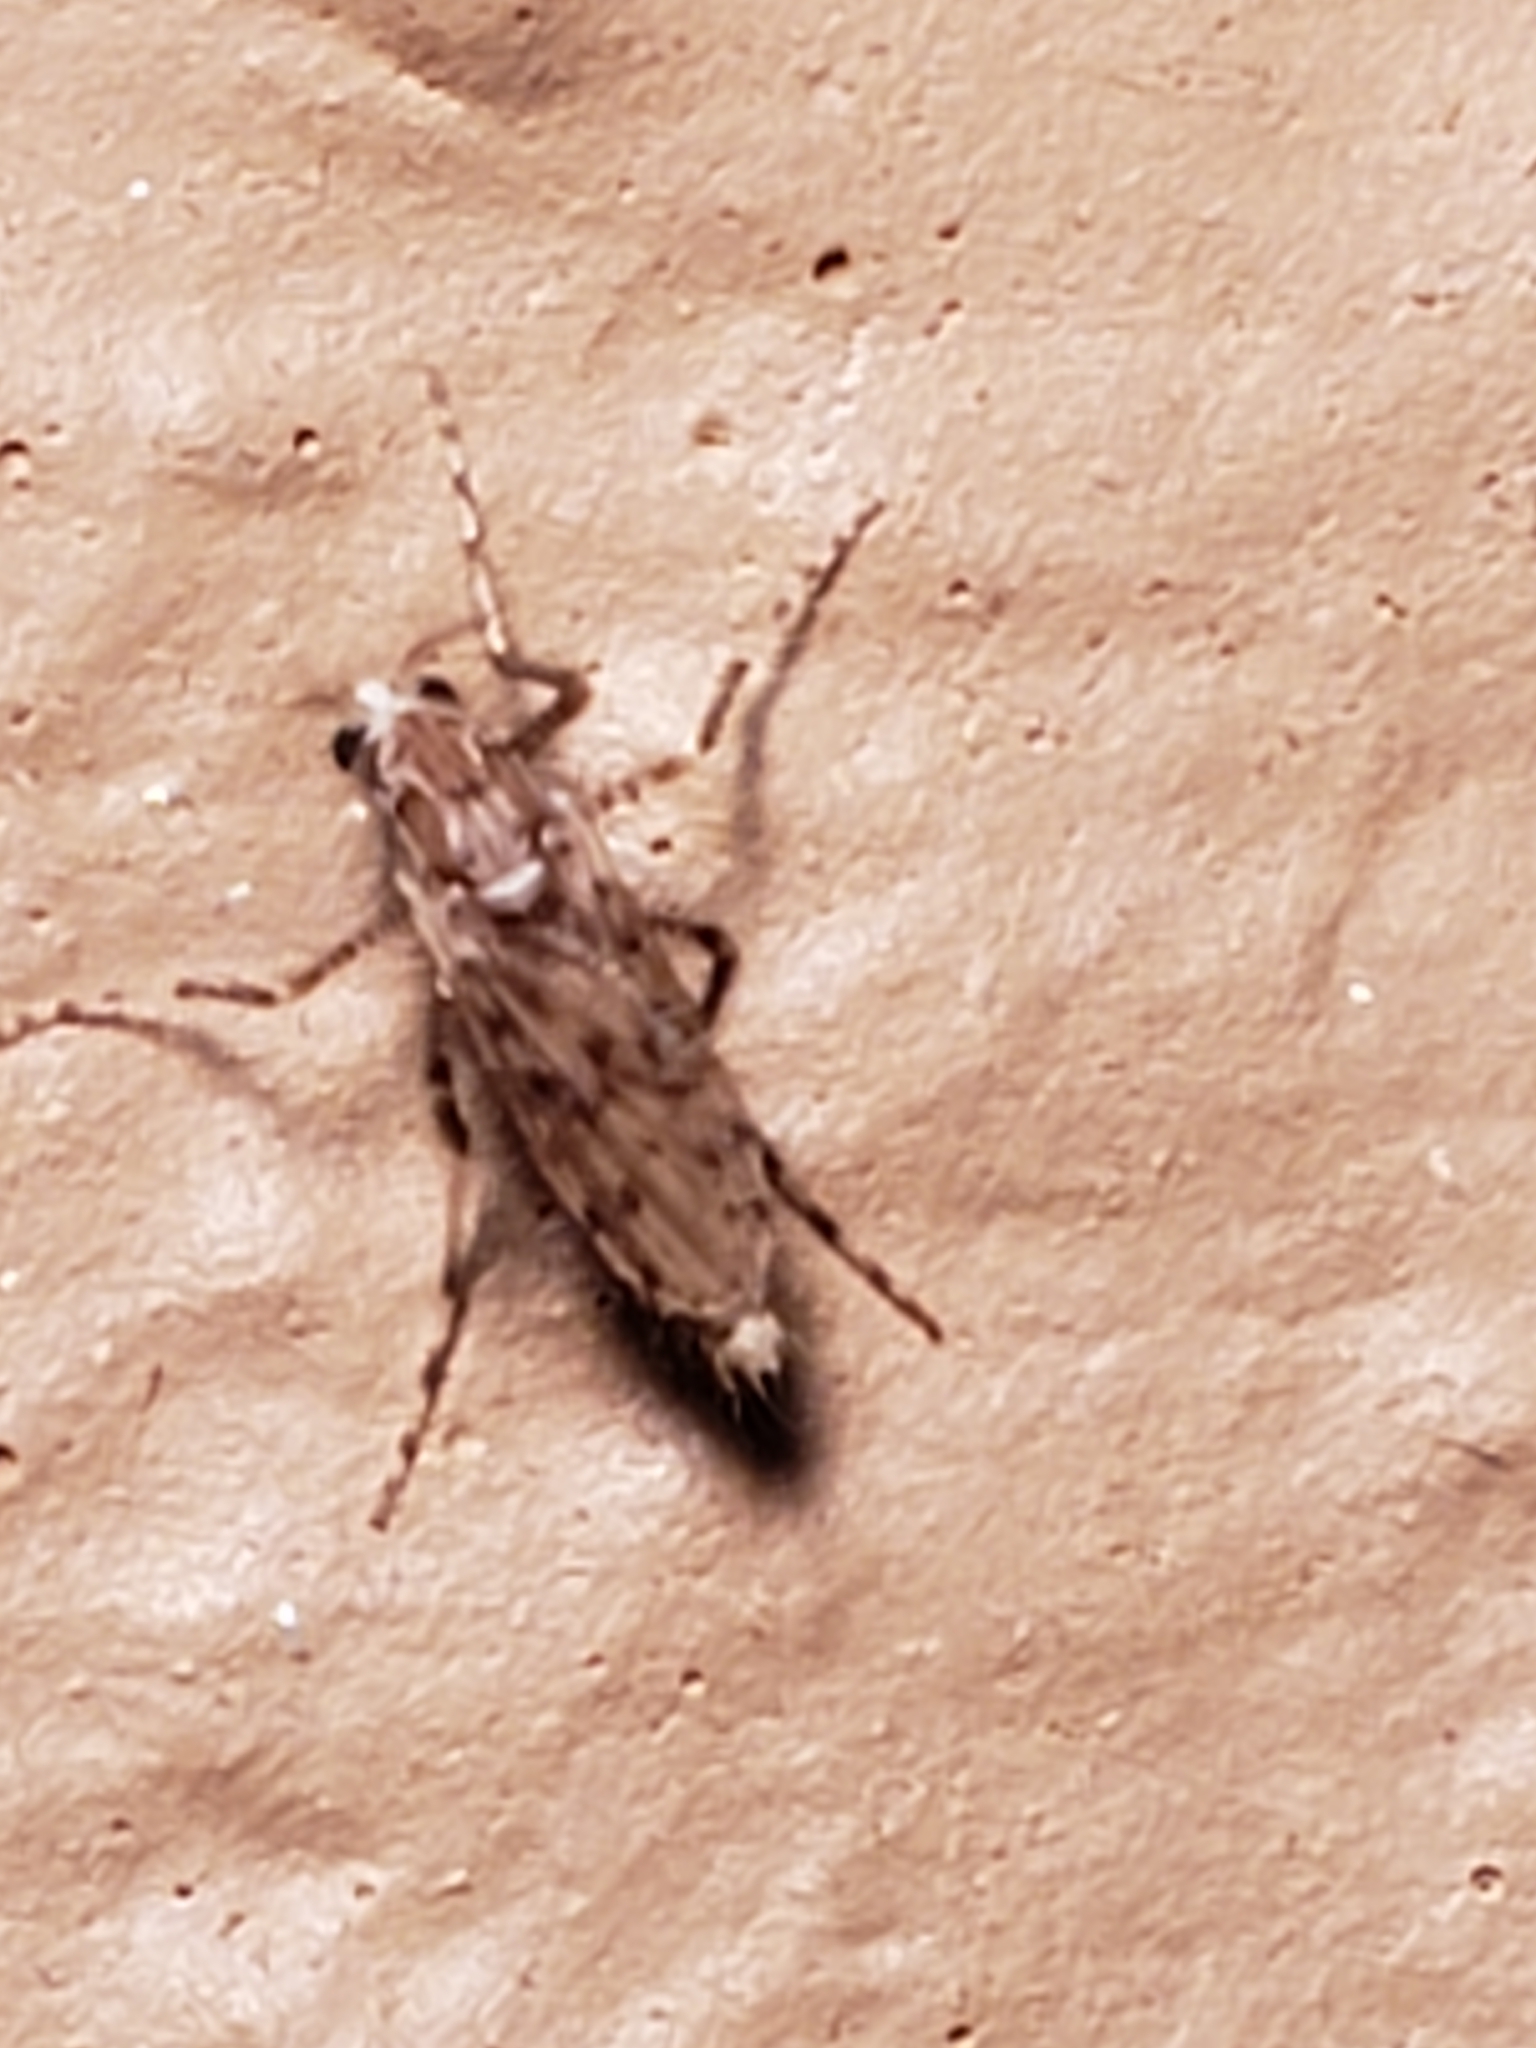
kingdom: Animalia
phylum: Arthropoda
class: Insecta
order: Diptera
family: Chaoboridae
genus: Chaoborus
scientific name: Chaoborus punctipennis
